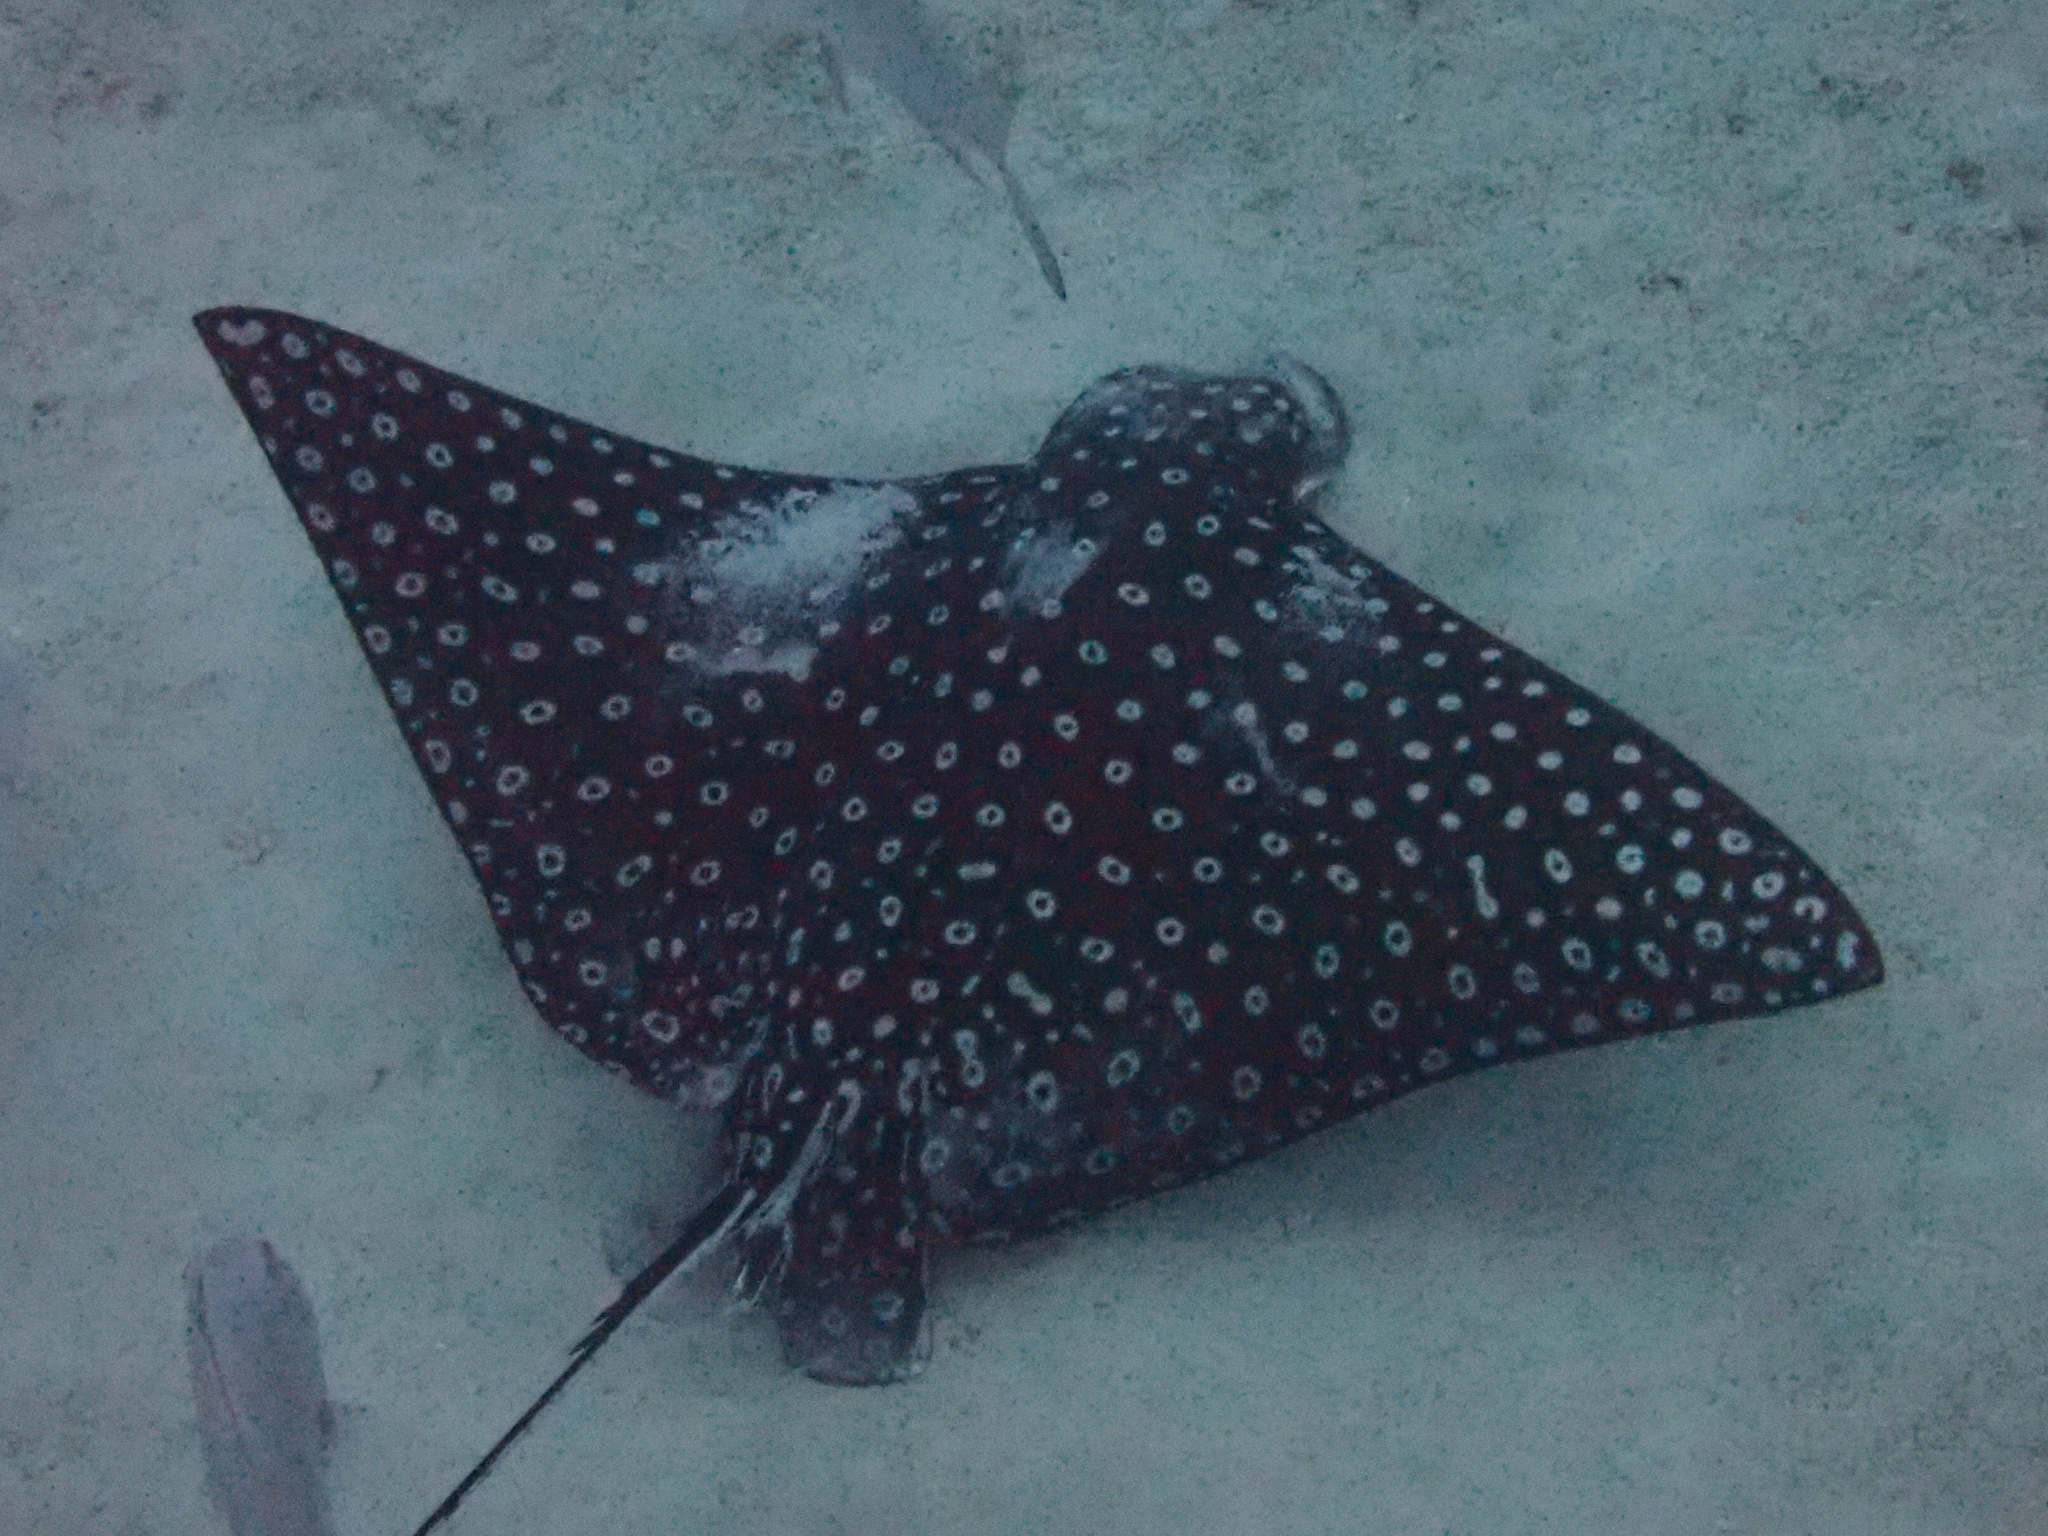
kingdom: Animalia
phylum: Chordata
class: Elasmobranchii
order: Myliobatiformes
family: Myliobatidae
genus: Aetobatus
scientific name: Aetobatus narinari
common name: Spotted eagle ray
